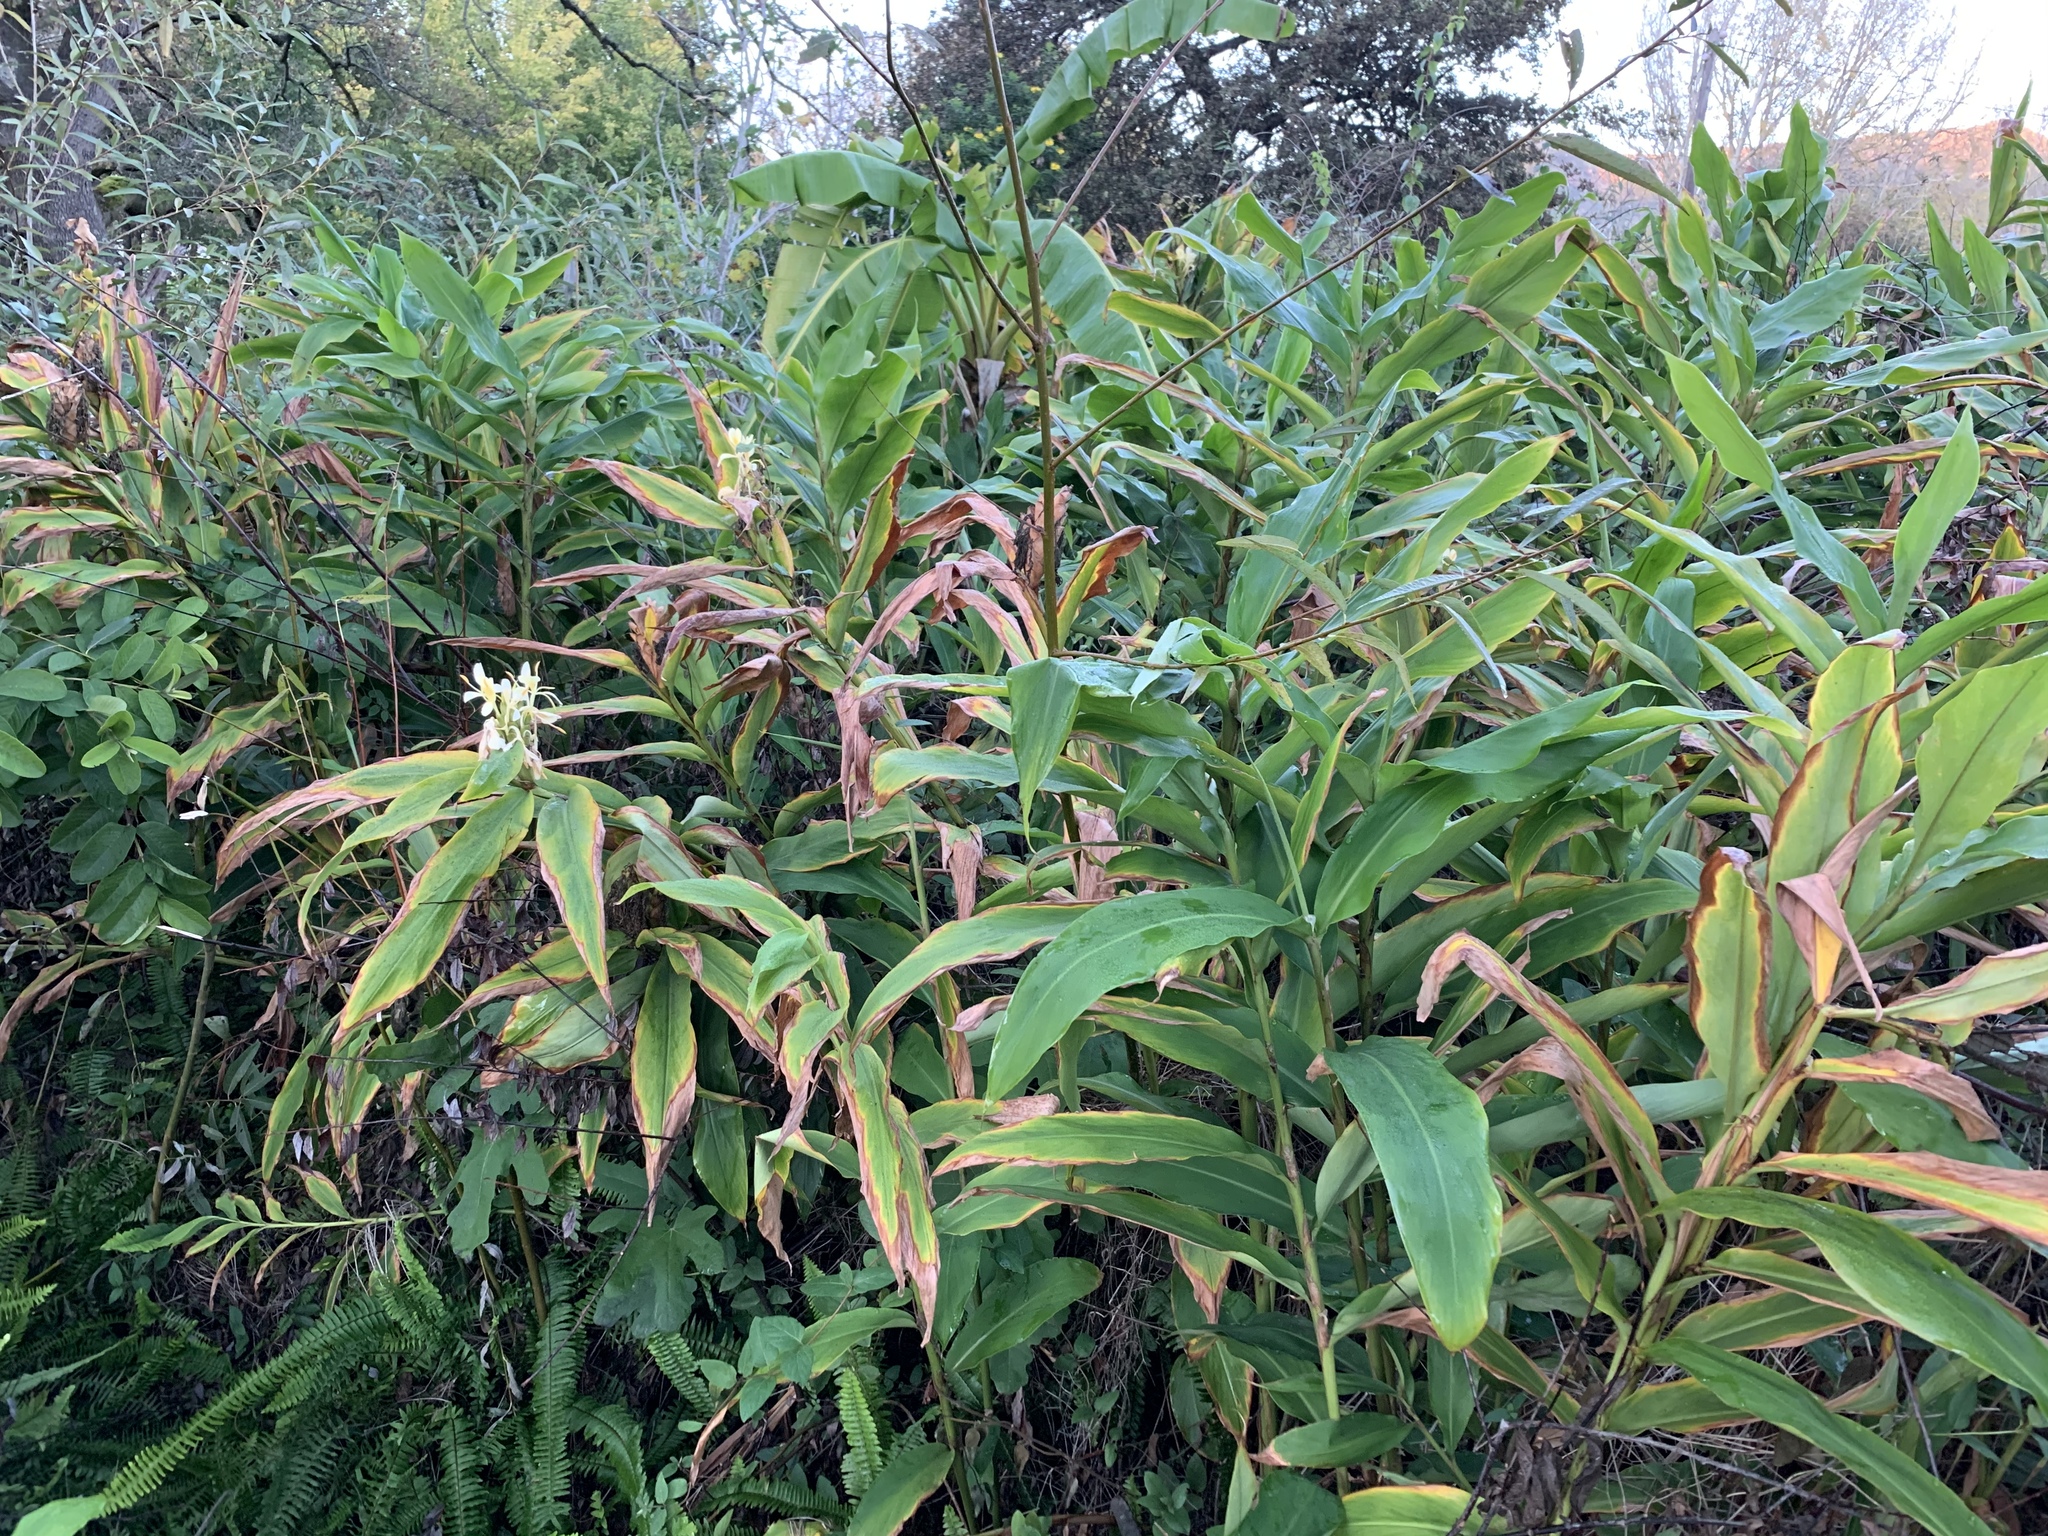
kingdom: Plantae
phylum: Tracheophyta
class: Liliopsida
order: Zingiberales
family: Zingiberaceae
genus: Hedychium
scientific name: Hedychium flavescens
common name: Yellow ginger
